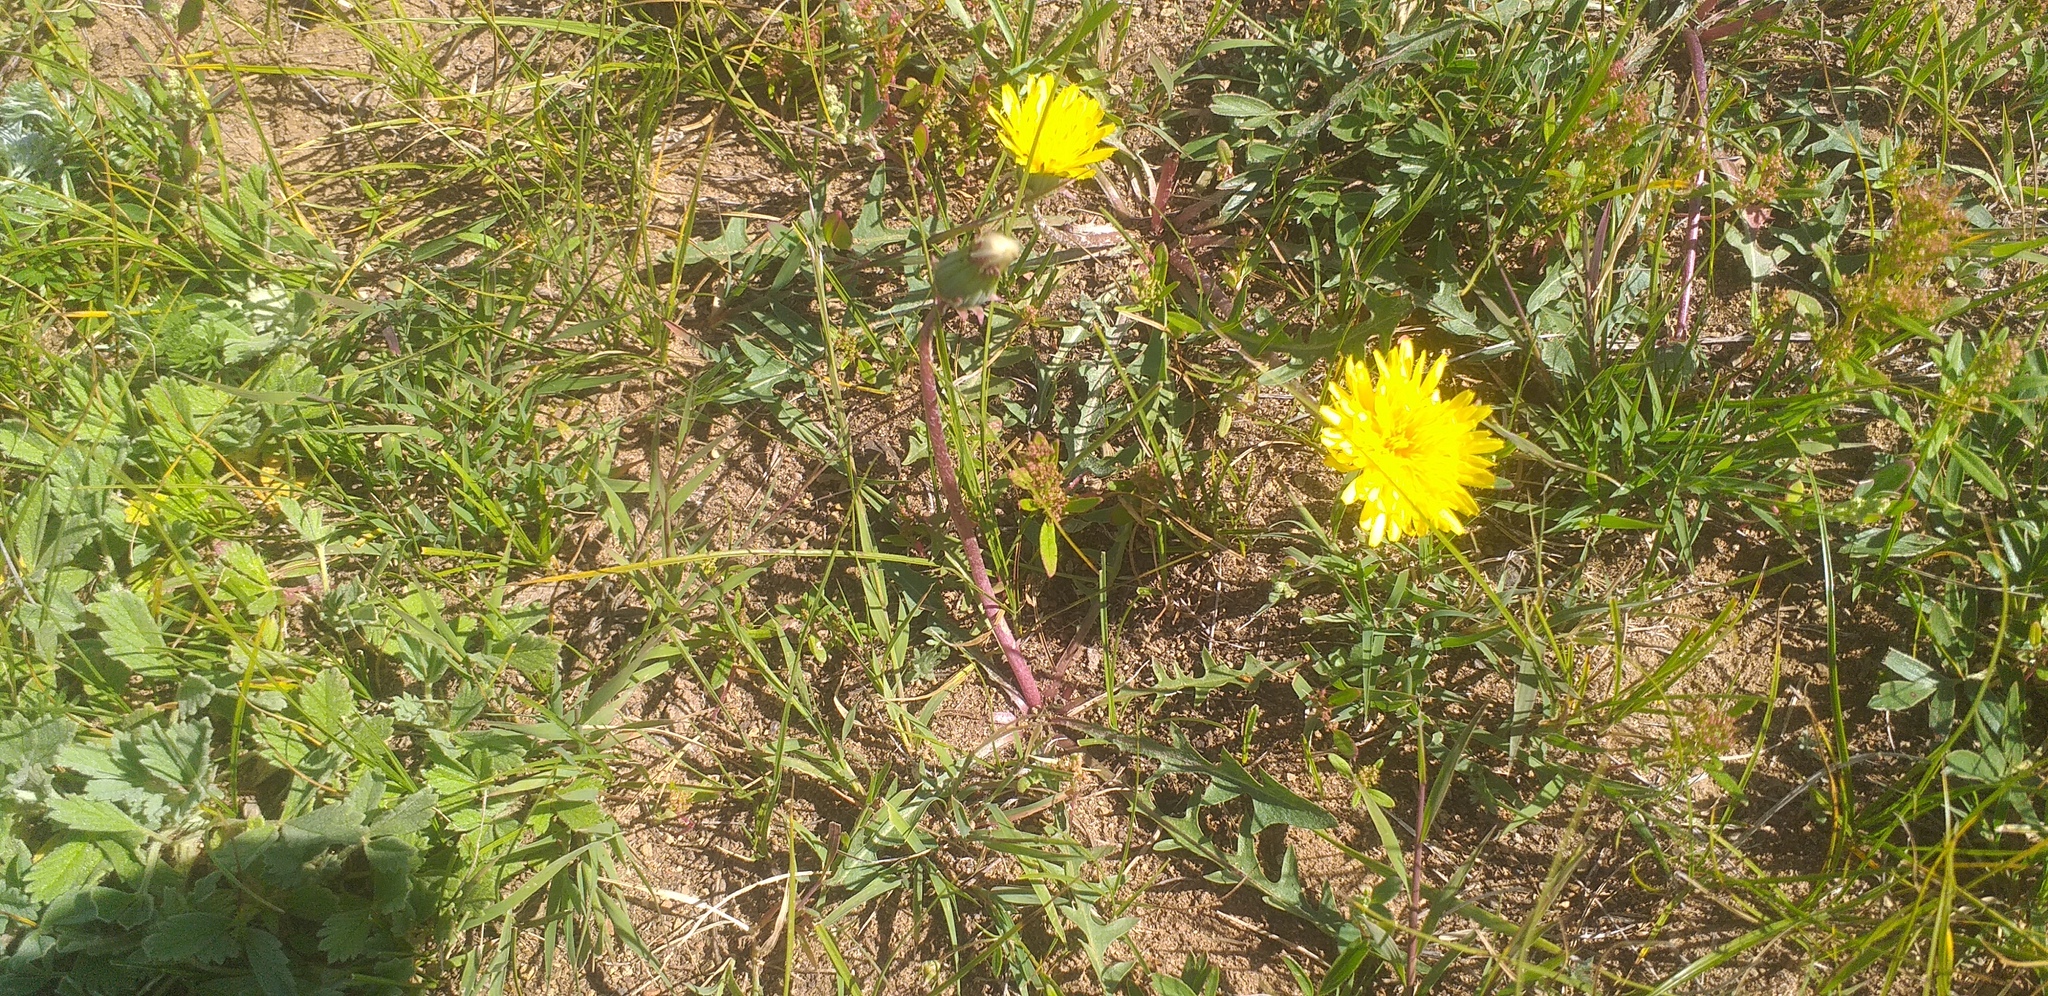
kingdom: Plantae
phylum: Tracheophyta
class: Magnoliopsida
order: Asterales
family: Asteraceae
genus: Taraxacum
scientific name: Taraxacum dissectum
